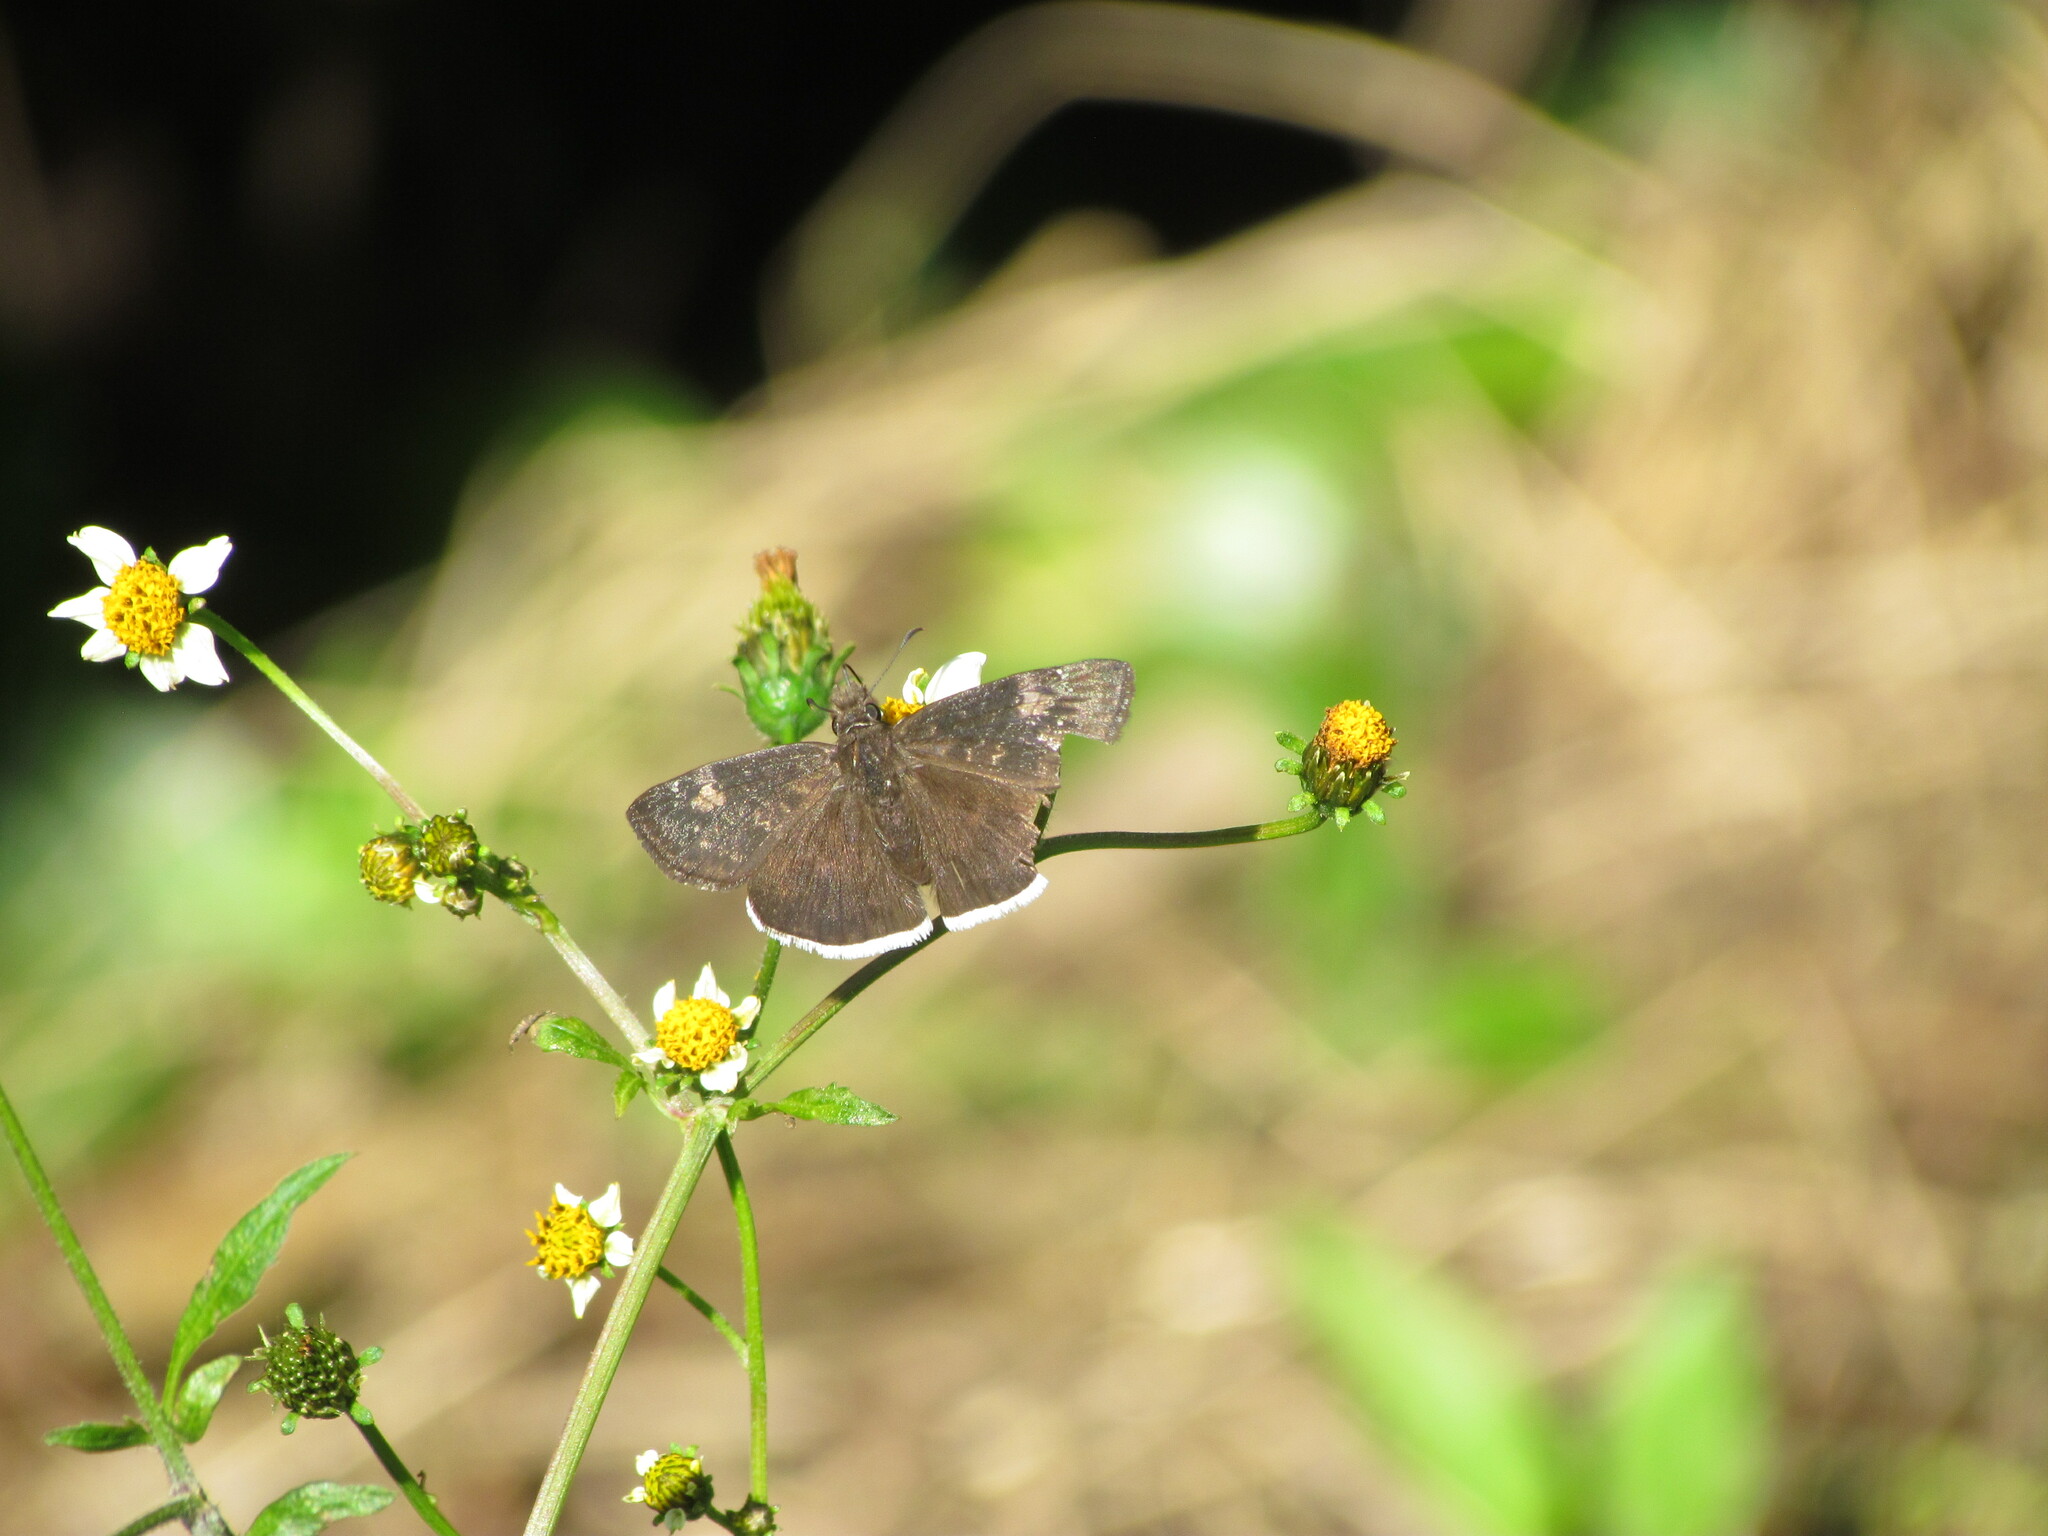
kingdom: Animalia
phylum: Arthropoda
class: Insecta
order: Lepidoptera
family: Hesperiidae
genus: Erynnis
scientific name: Erynnis funeralis
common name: Funereal duskywing
